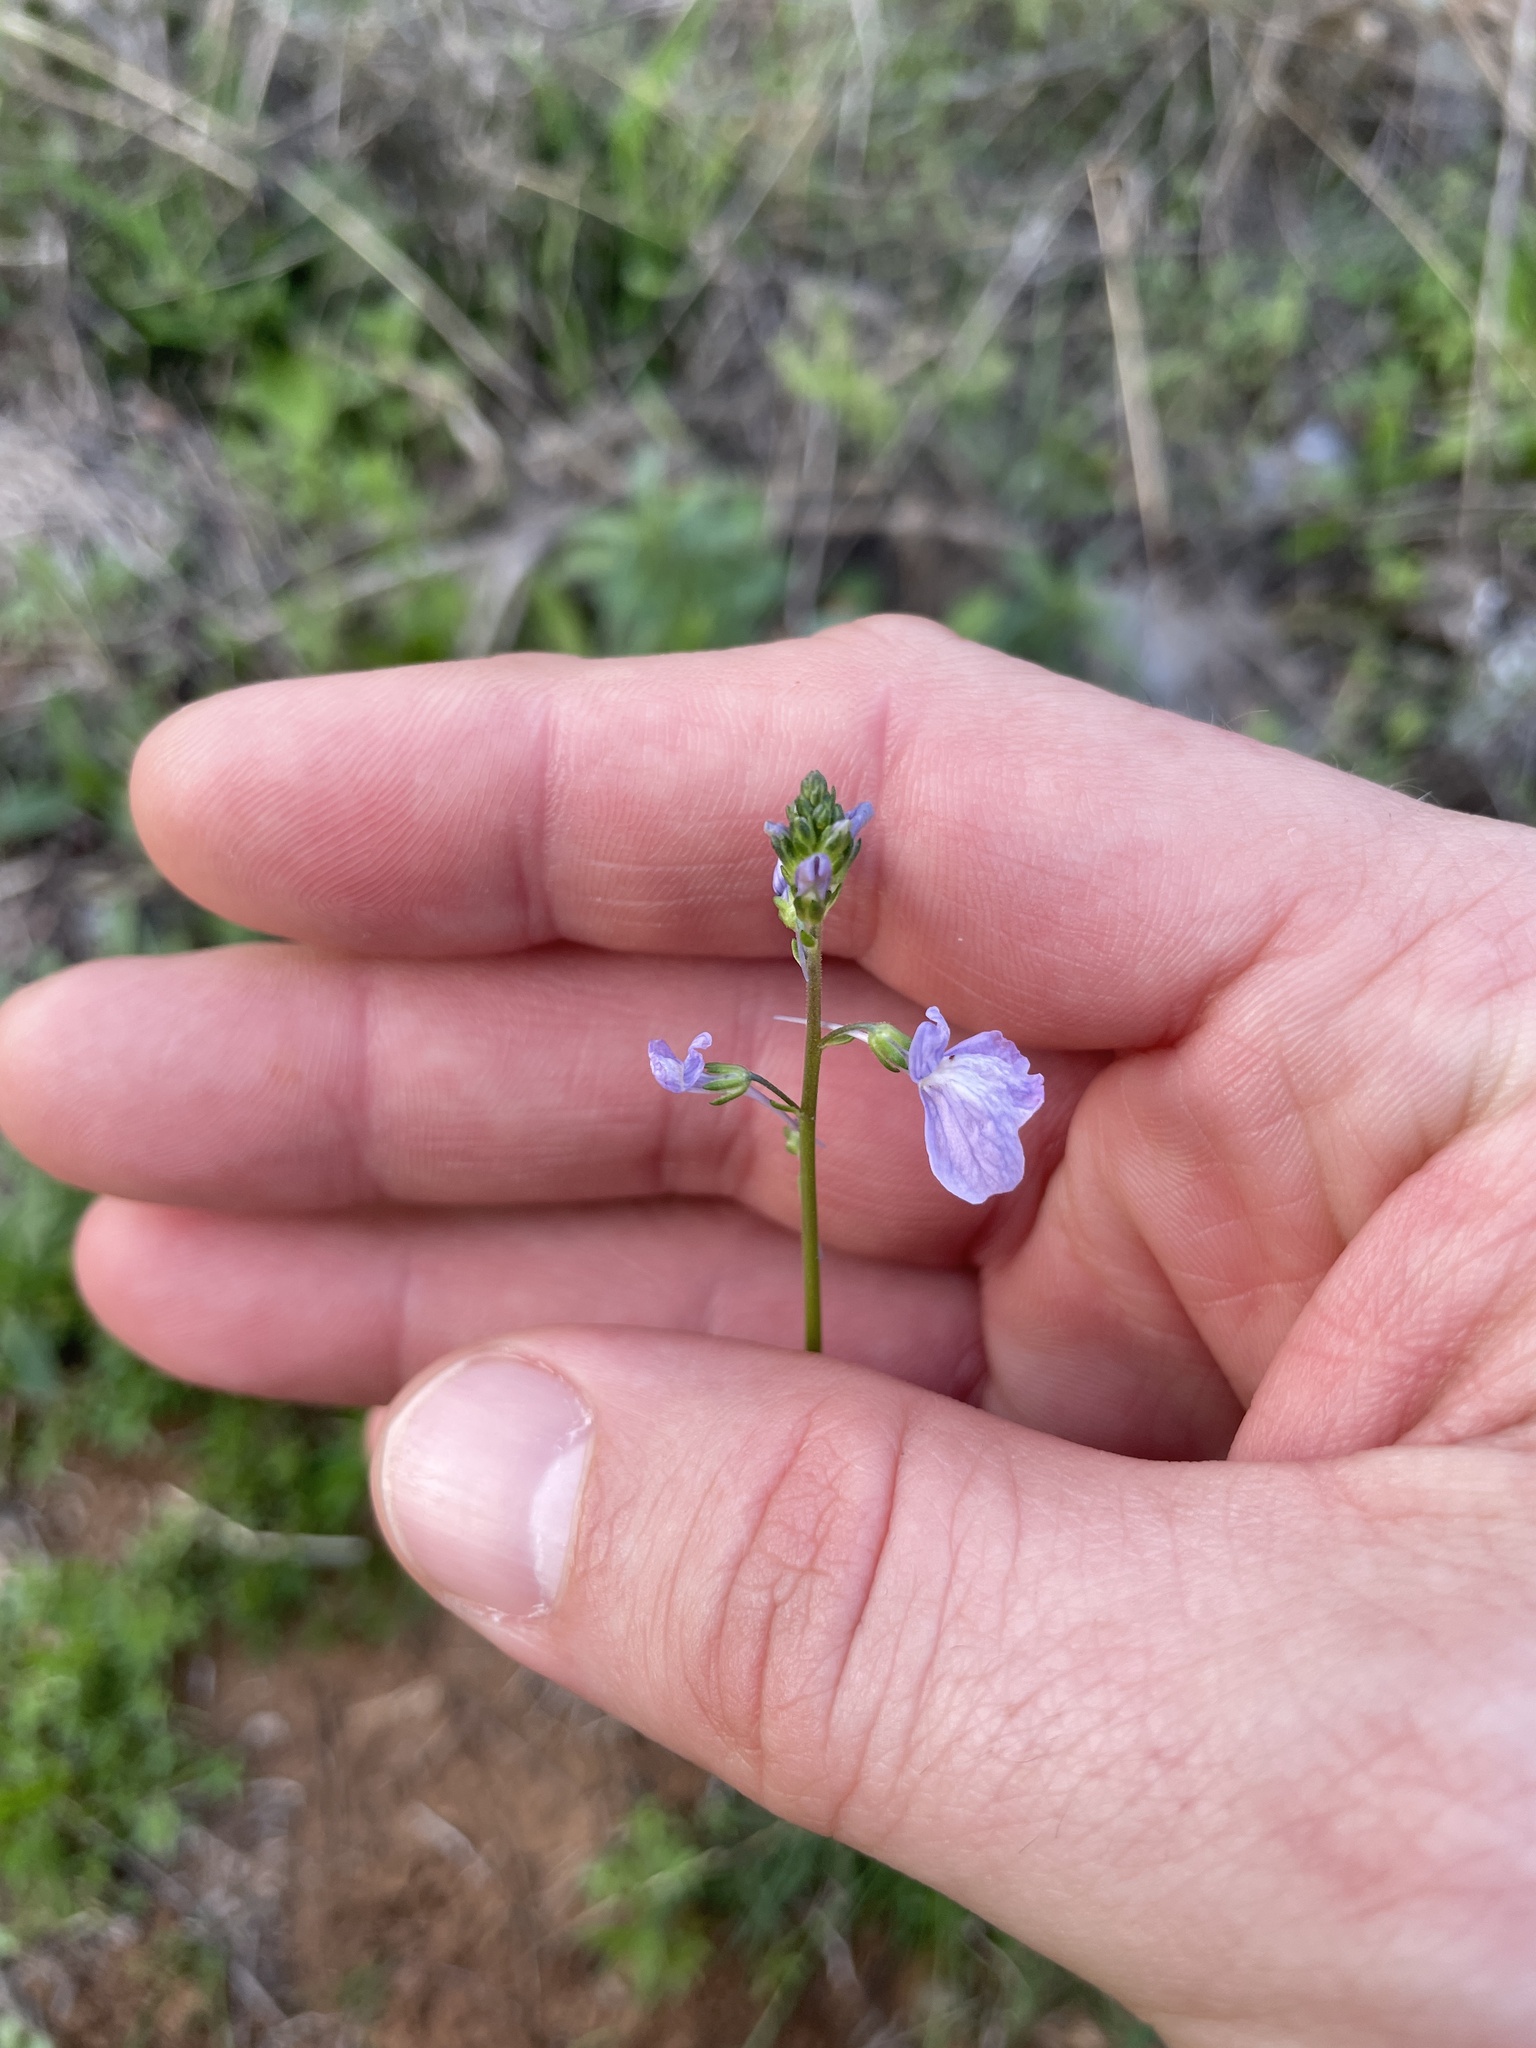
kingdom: Plantae
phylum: Tracheophyta
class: Magnoliopsida
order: Lamiales
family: Plantaginaceae
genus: Nuttallanthus
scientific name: Nuttallanthus texanus
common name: Texas toadflax
